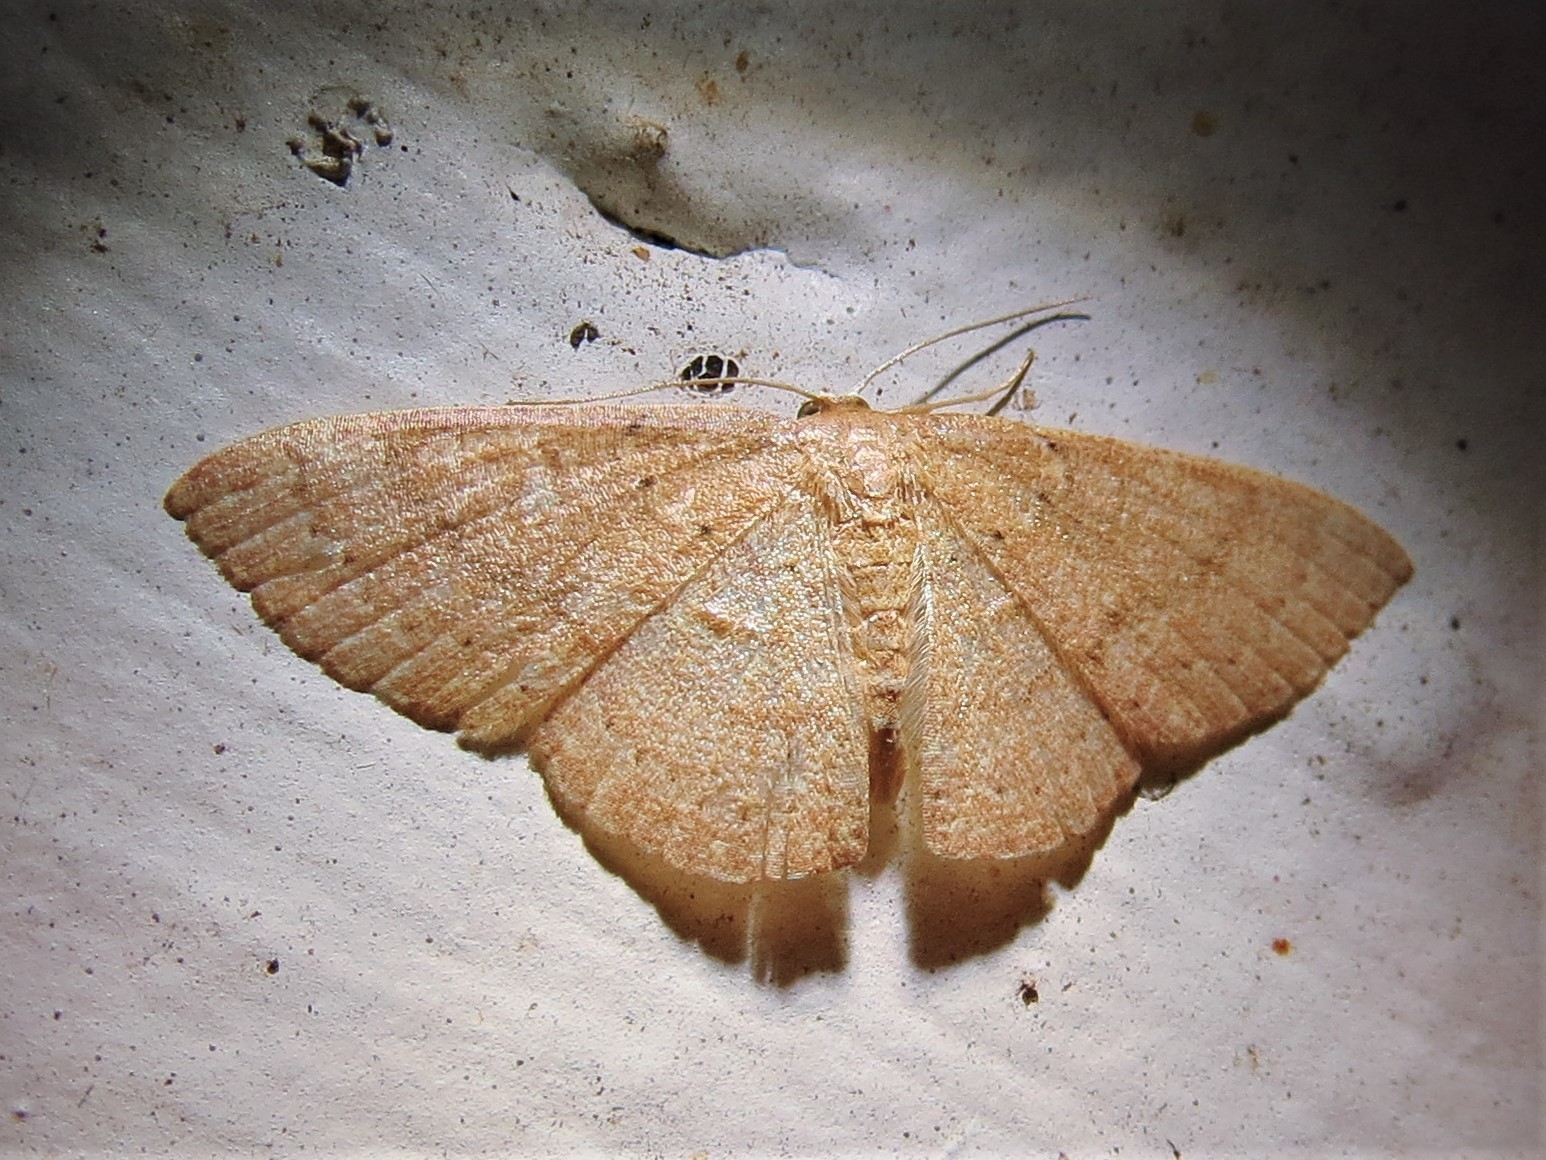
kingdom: Animalia
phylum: Arthropoda
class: Insecta
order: Lepidoptera
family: Geometridae
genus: Pleuroprucha
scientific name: Pleuroprucha insulsaria
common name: Common tan wave
